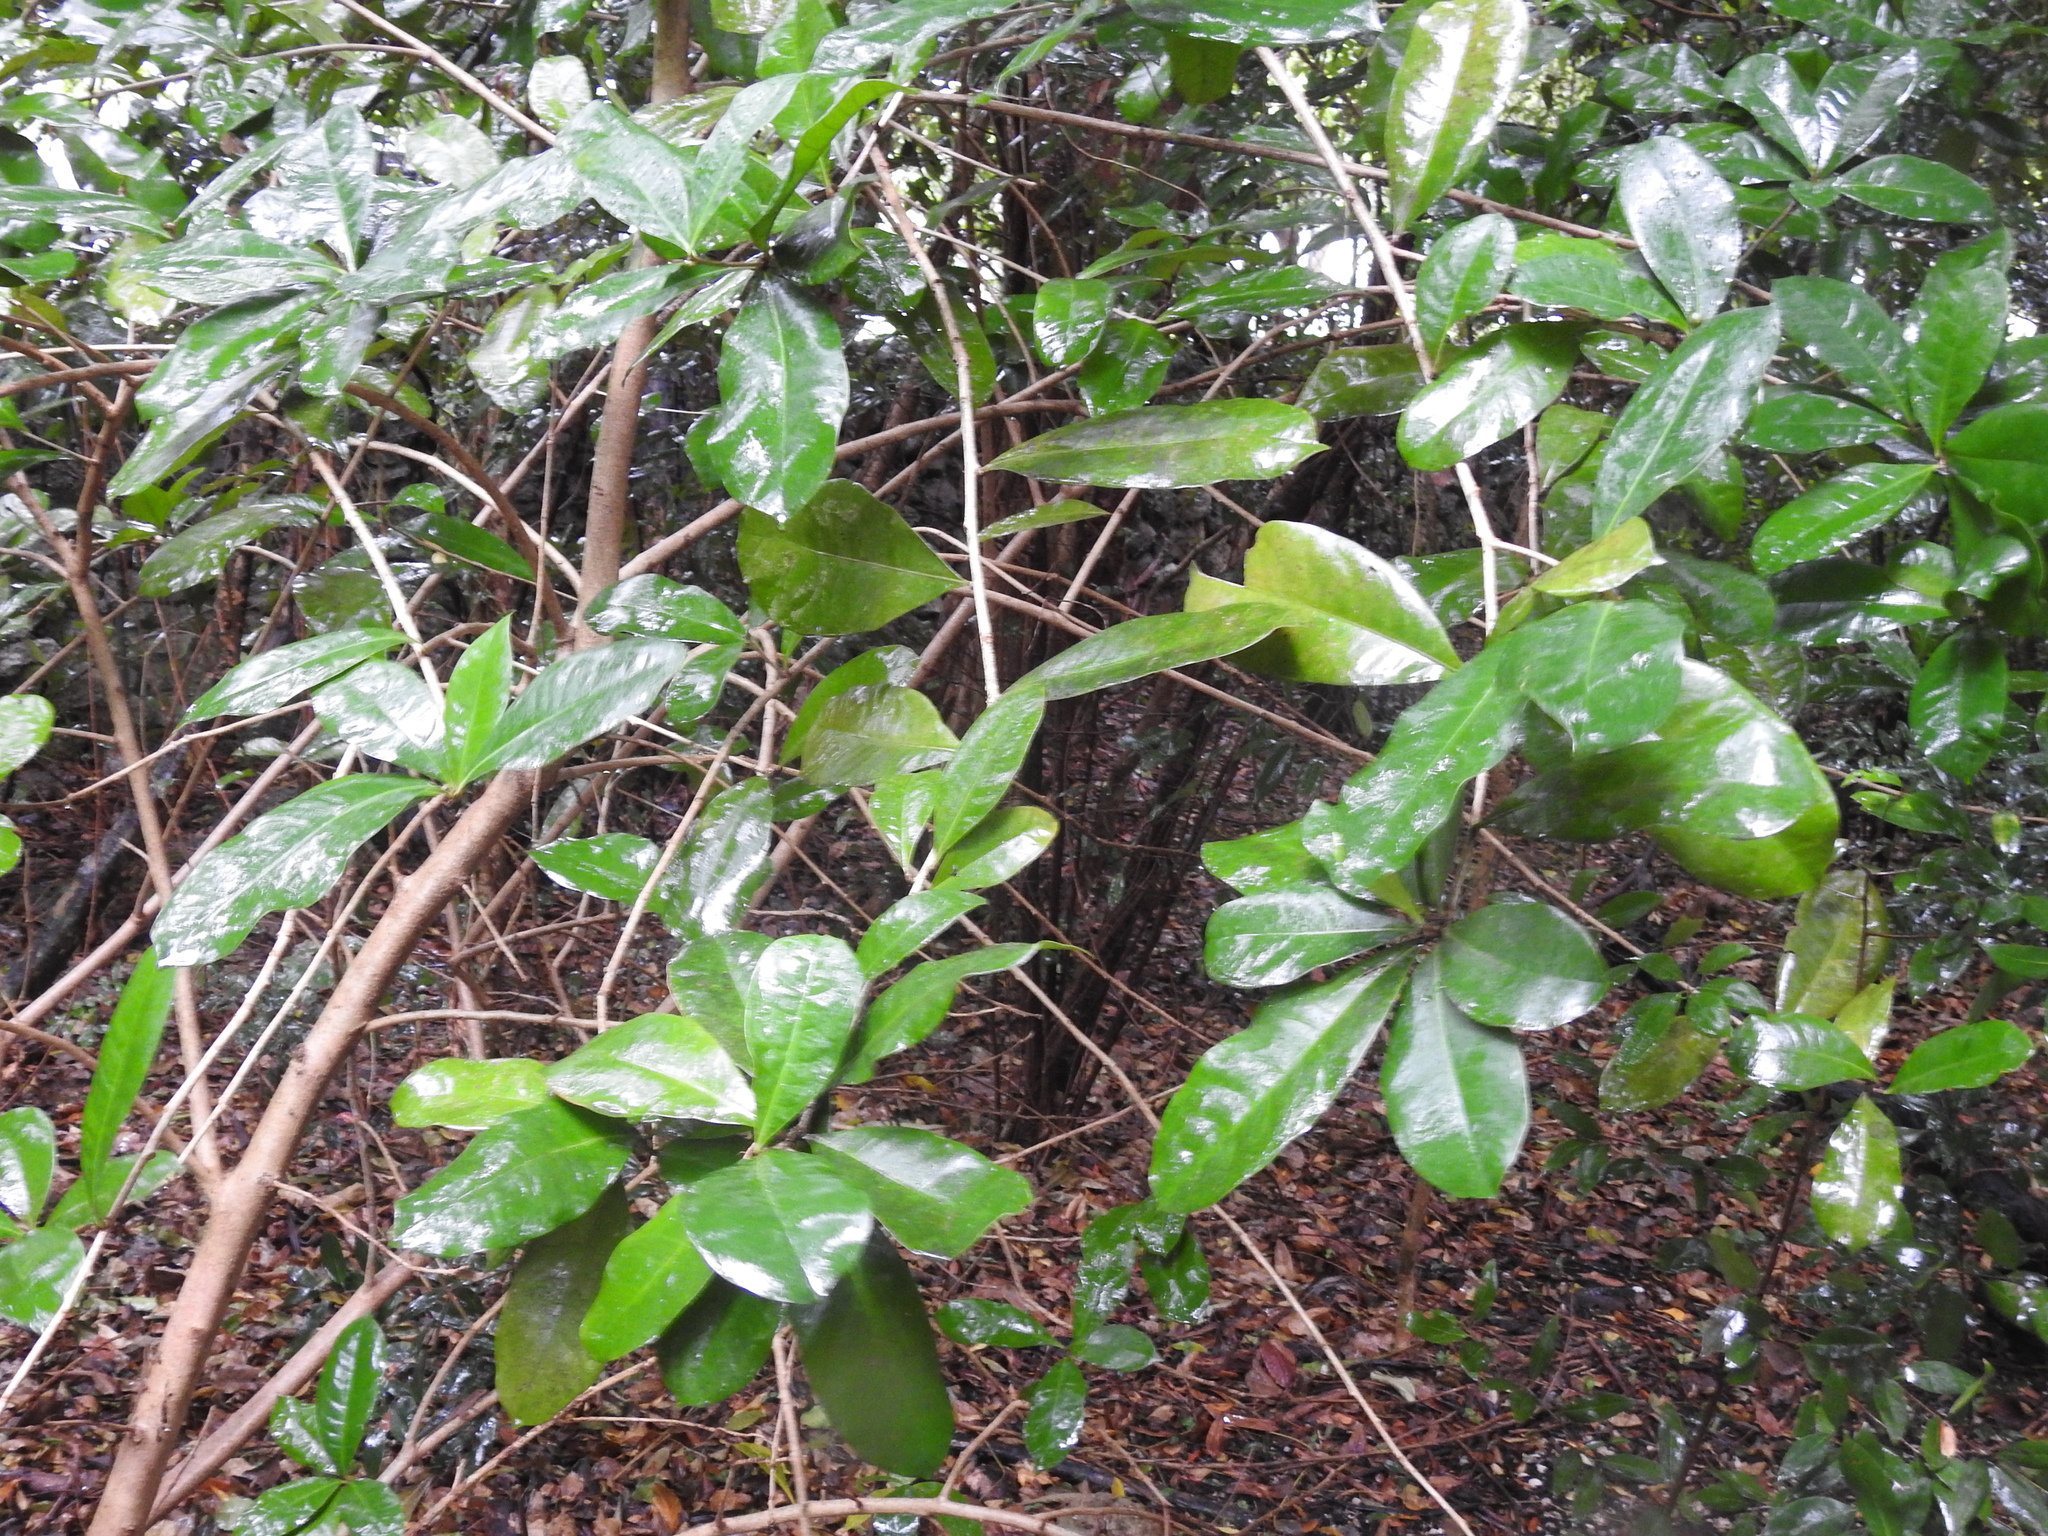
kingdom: Plantae
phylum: Tracheophyta
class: Magnoliopsida
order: Lamiales
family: Bignoniaceae
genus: Amphitecna
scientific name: Amphitecna latifolia
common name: Black-calabash
